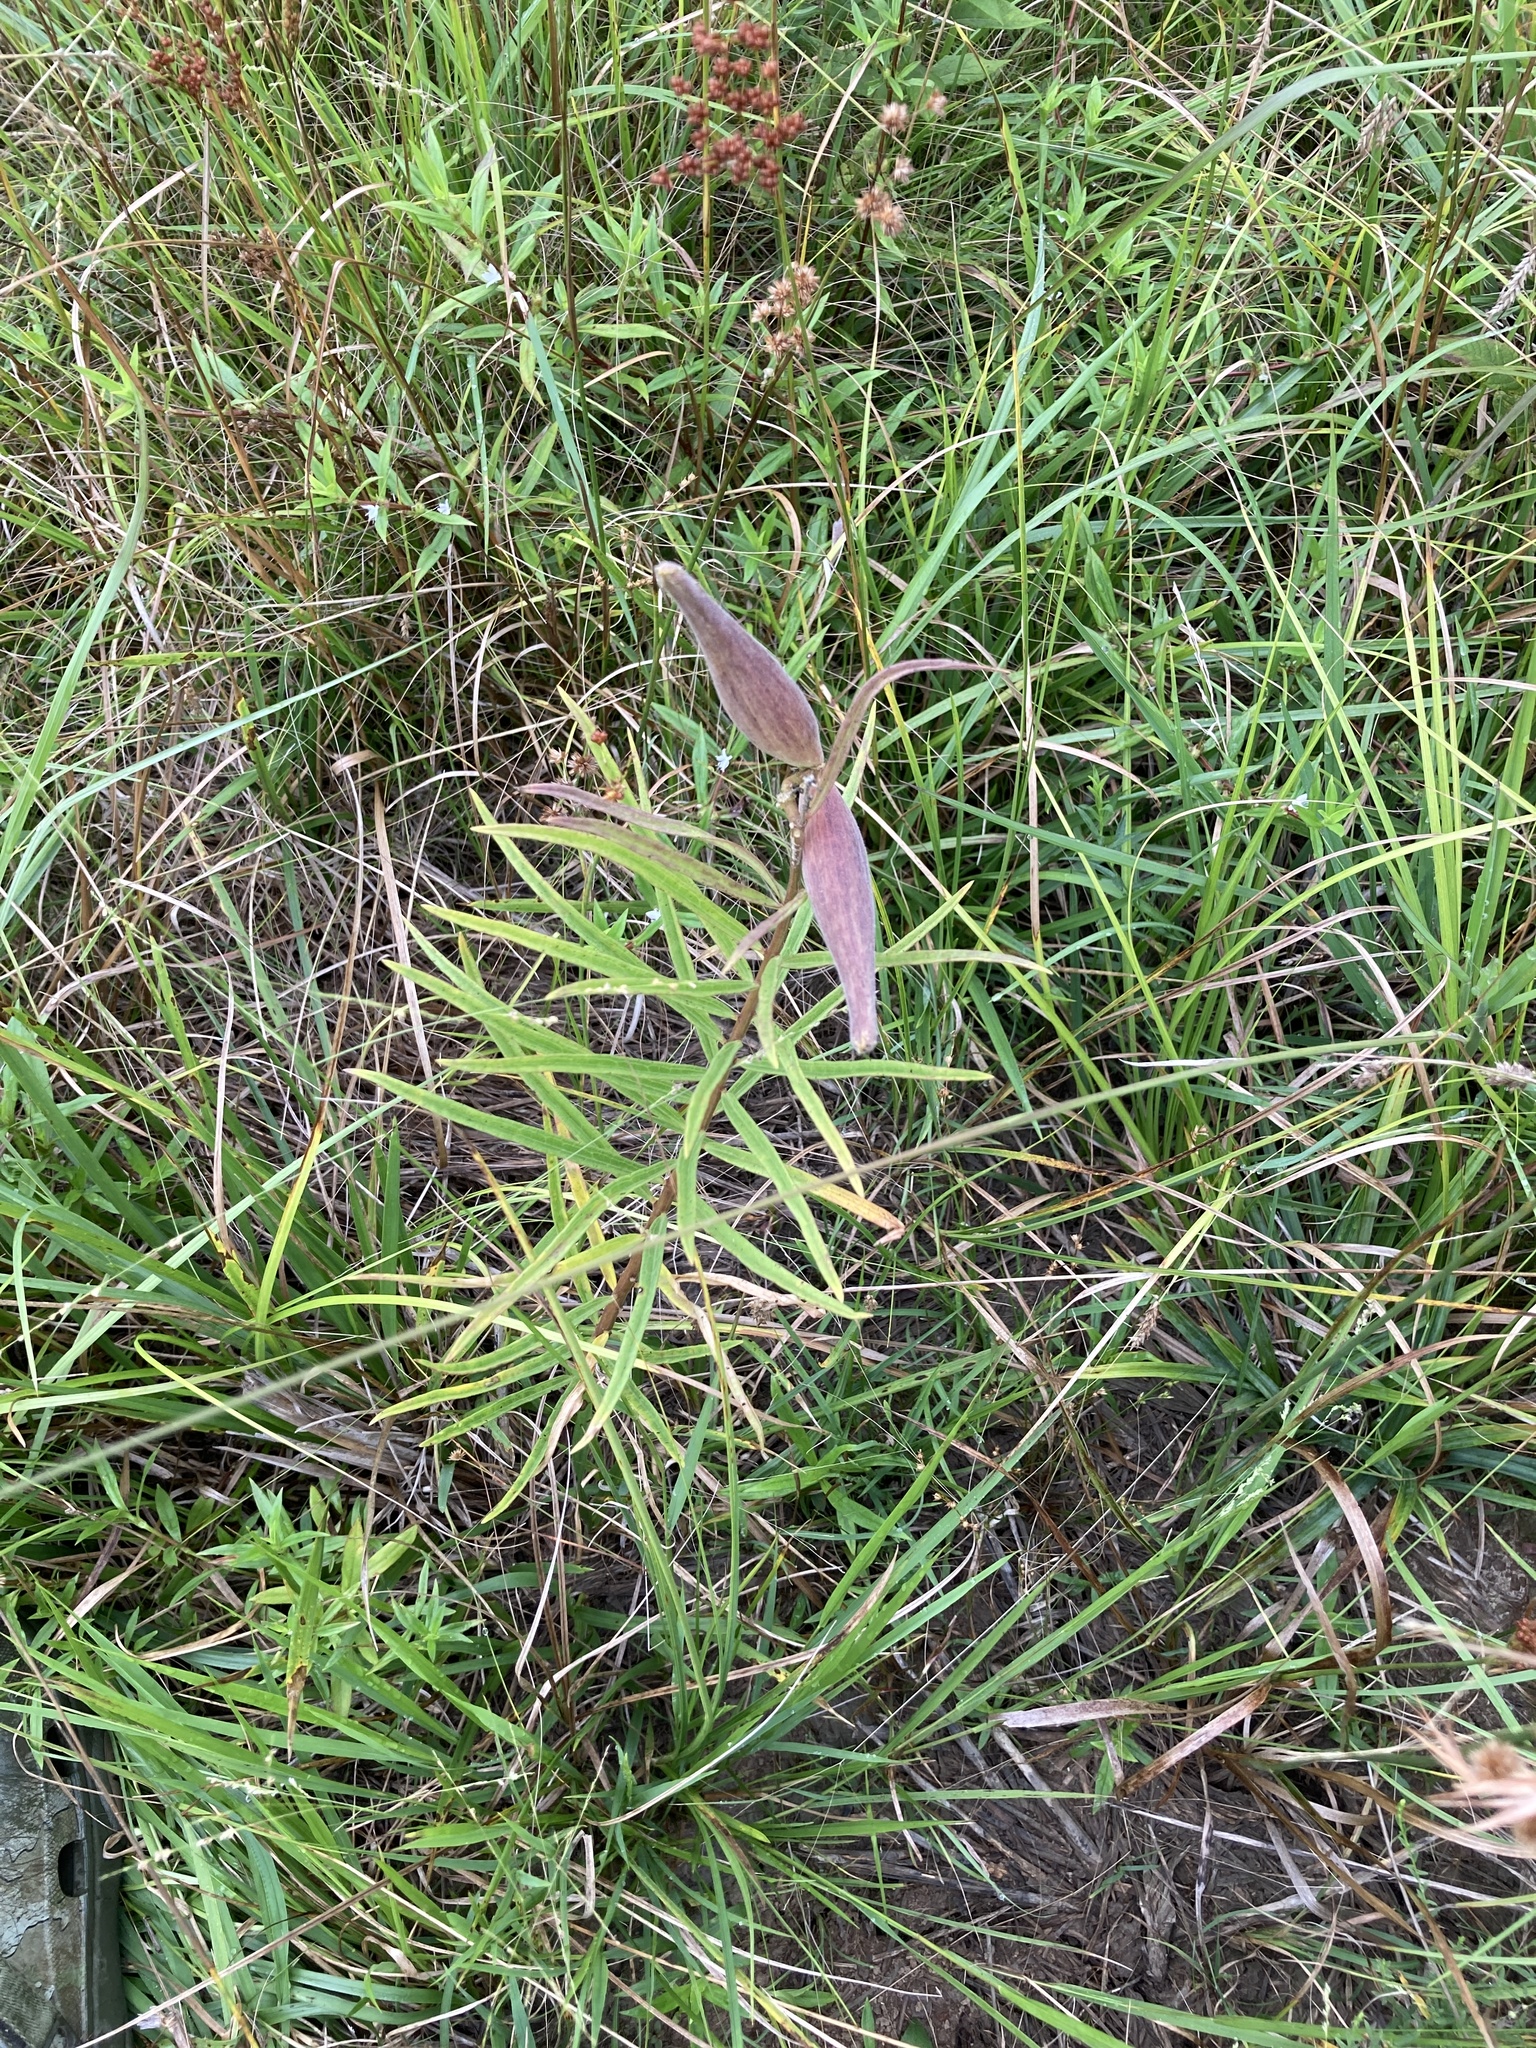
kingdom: Plantae
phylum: Tracheophyta
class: Magnoliopsida
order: Gentianales
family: Apocynaceae
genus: Asclepias
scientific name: Asclepias hirtella
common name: Prairie milkweed
